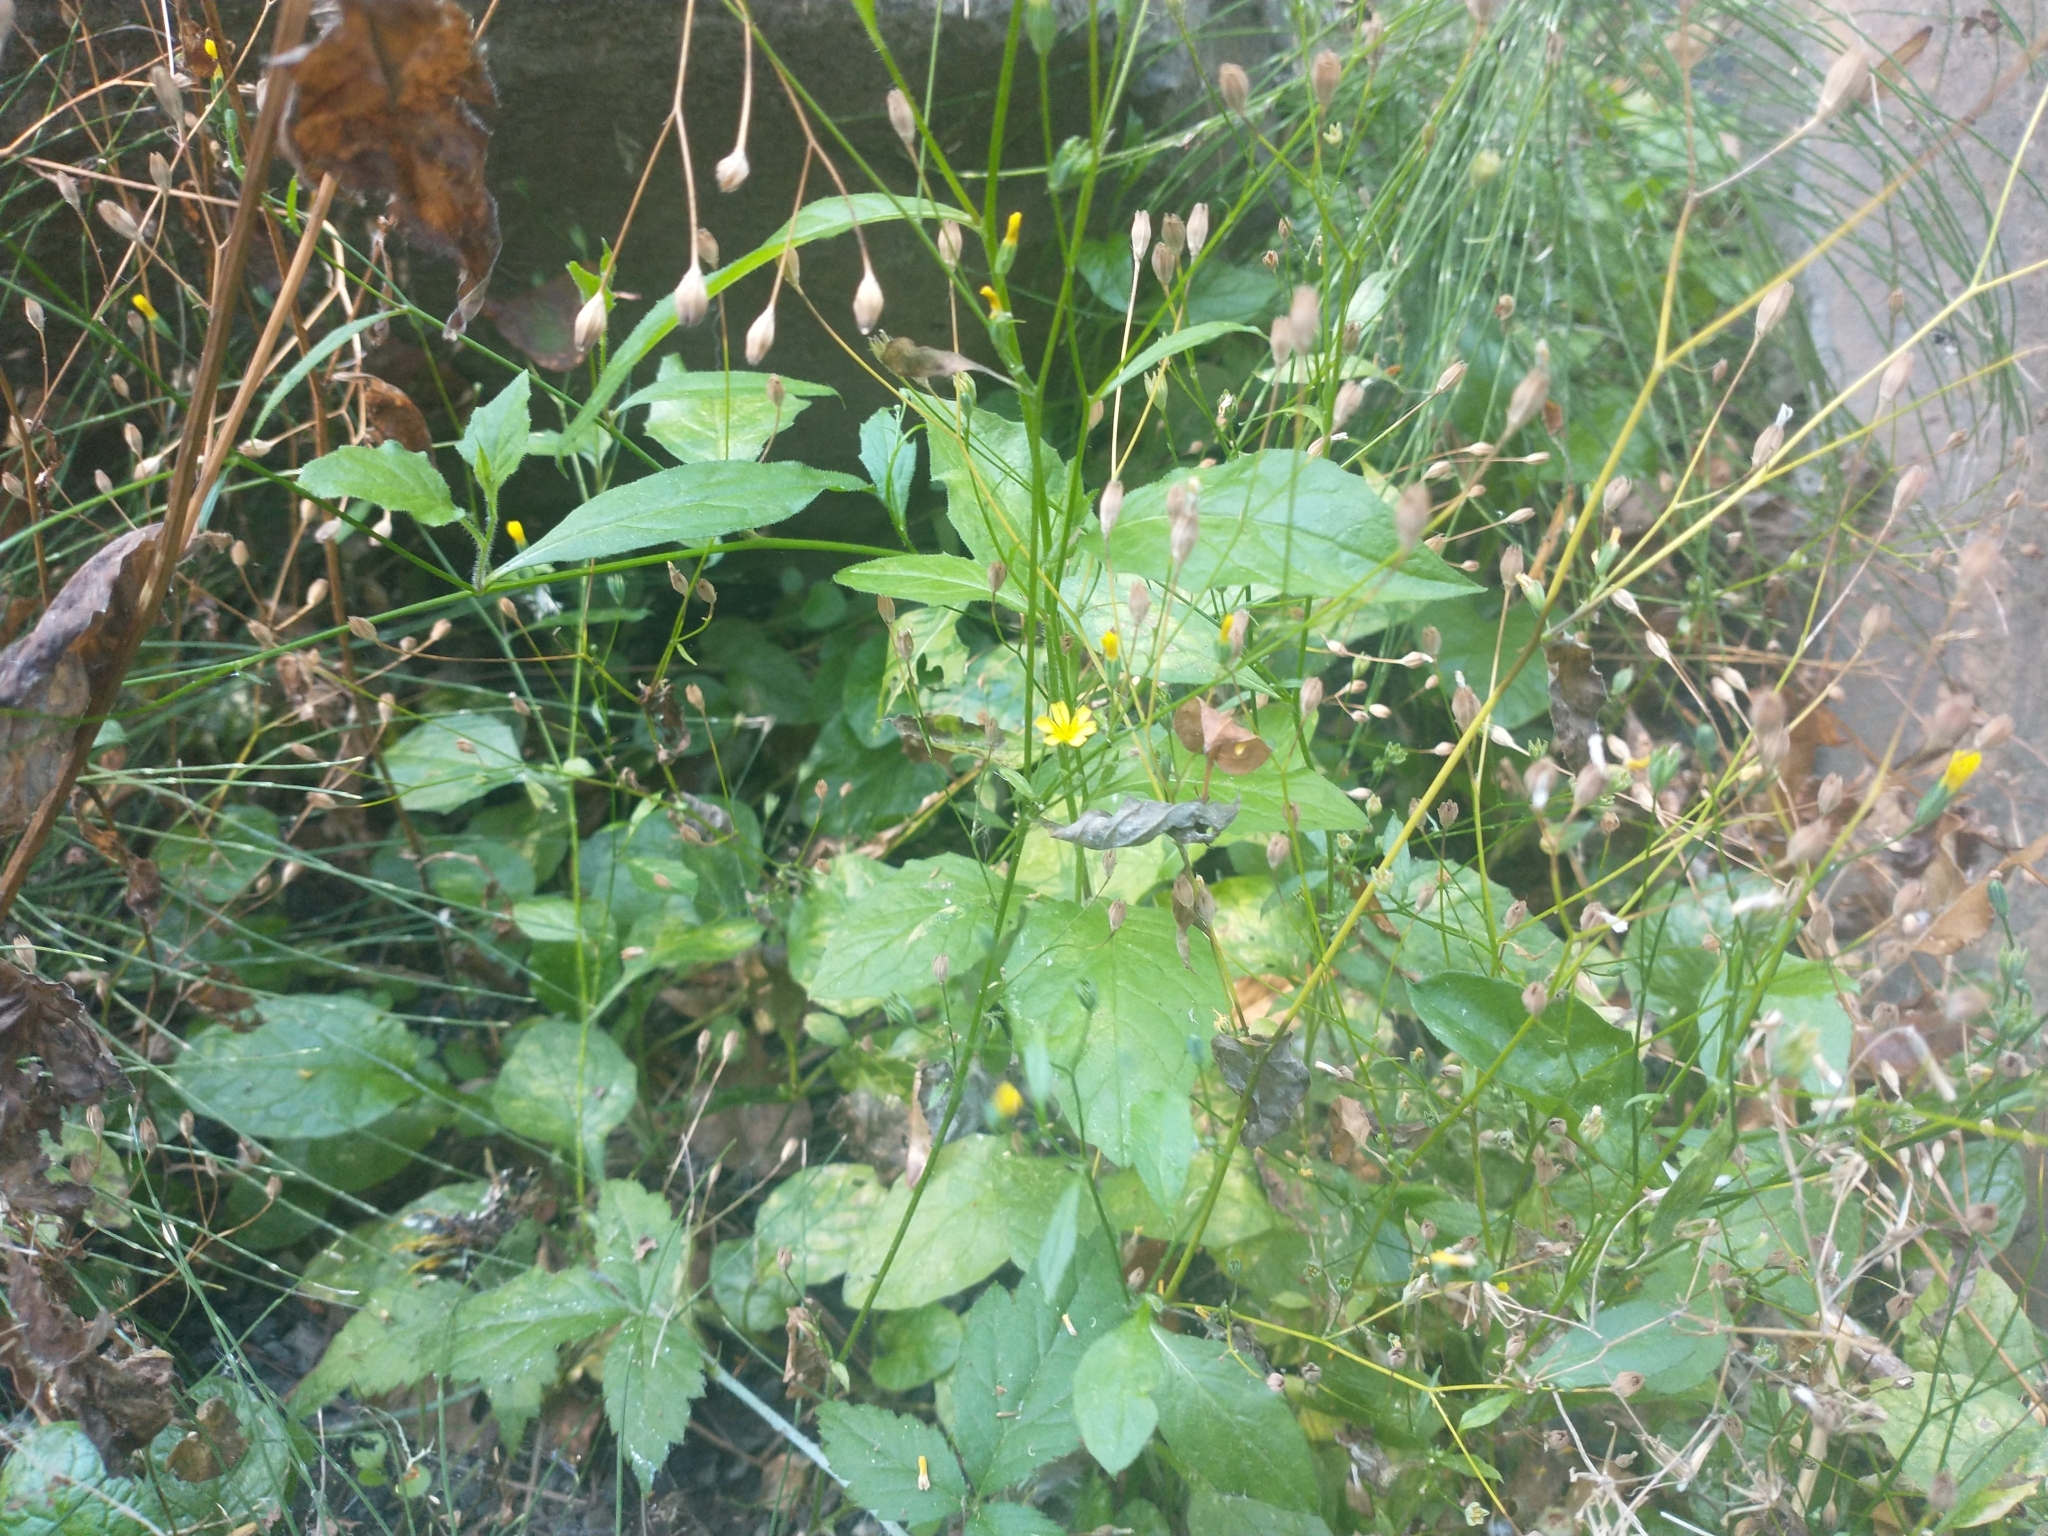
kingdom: Plantae
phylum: Tracheophyta
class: Magnoliopsida
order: Asterales
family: Asteraceae
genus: Lapsana
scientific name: Lapsana communis
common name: Nipplewort
